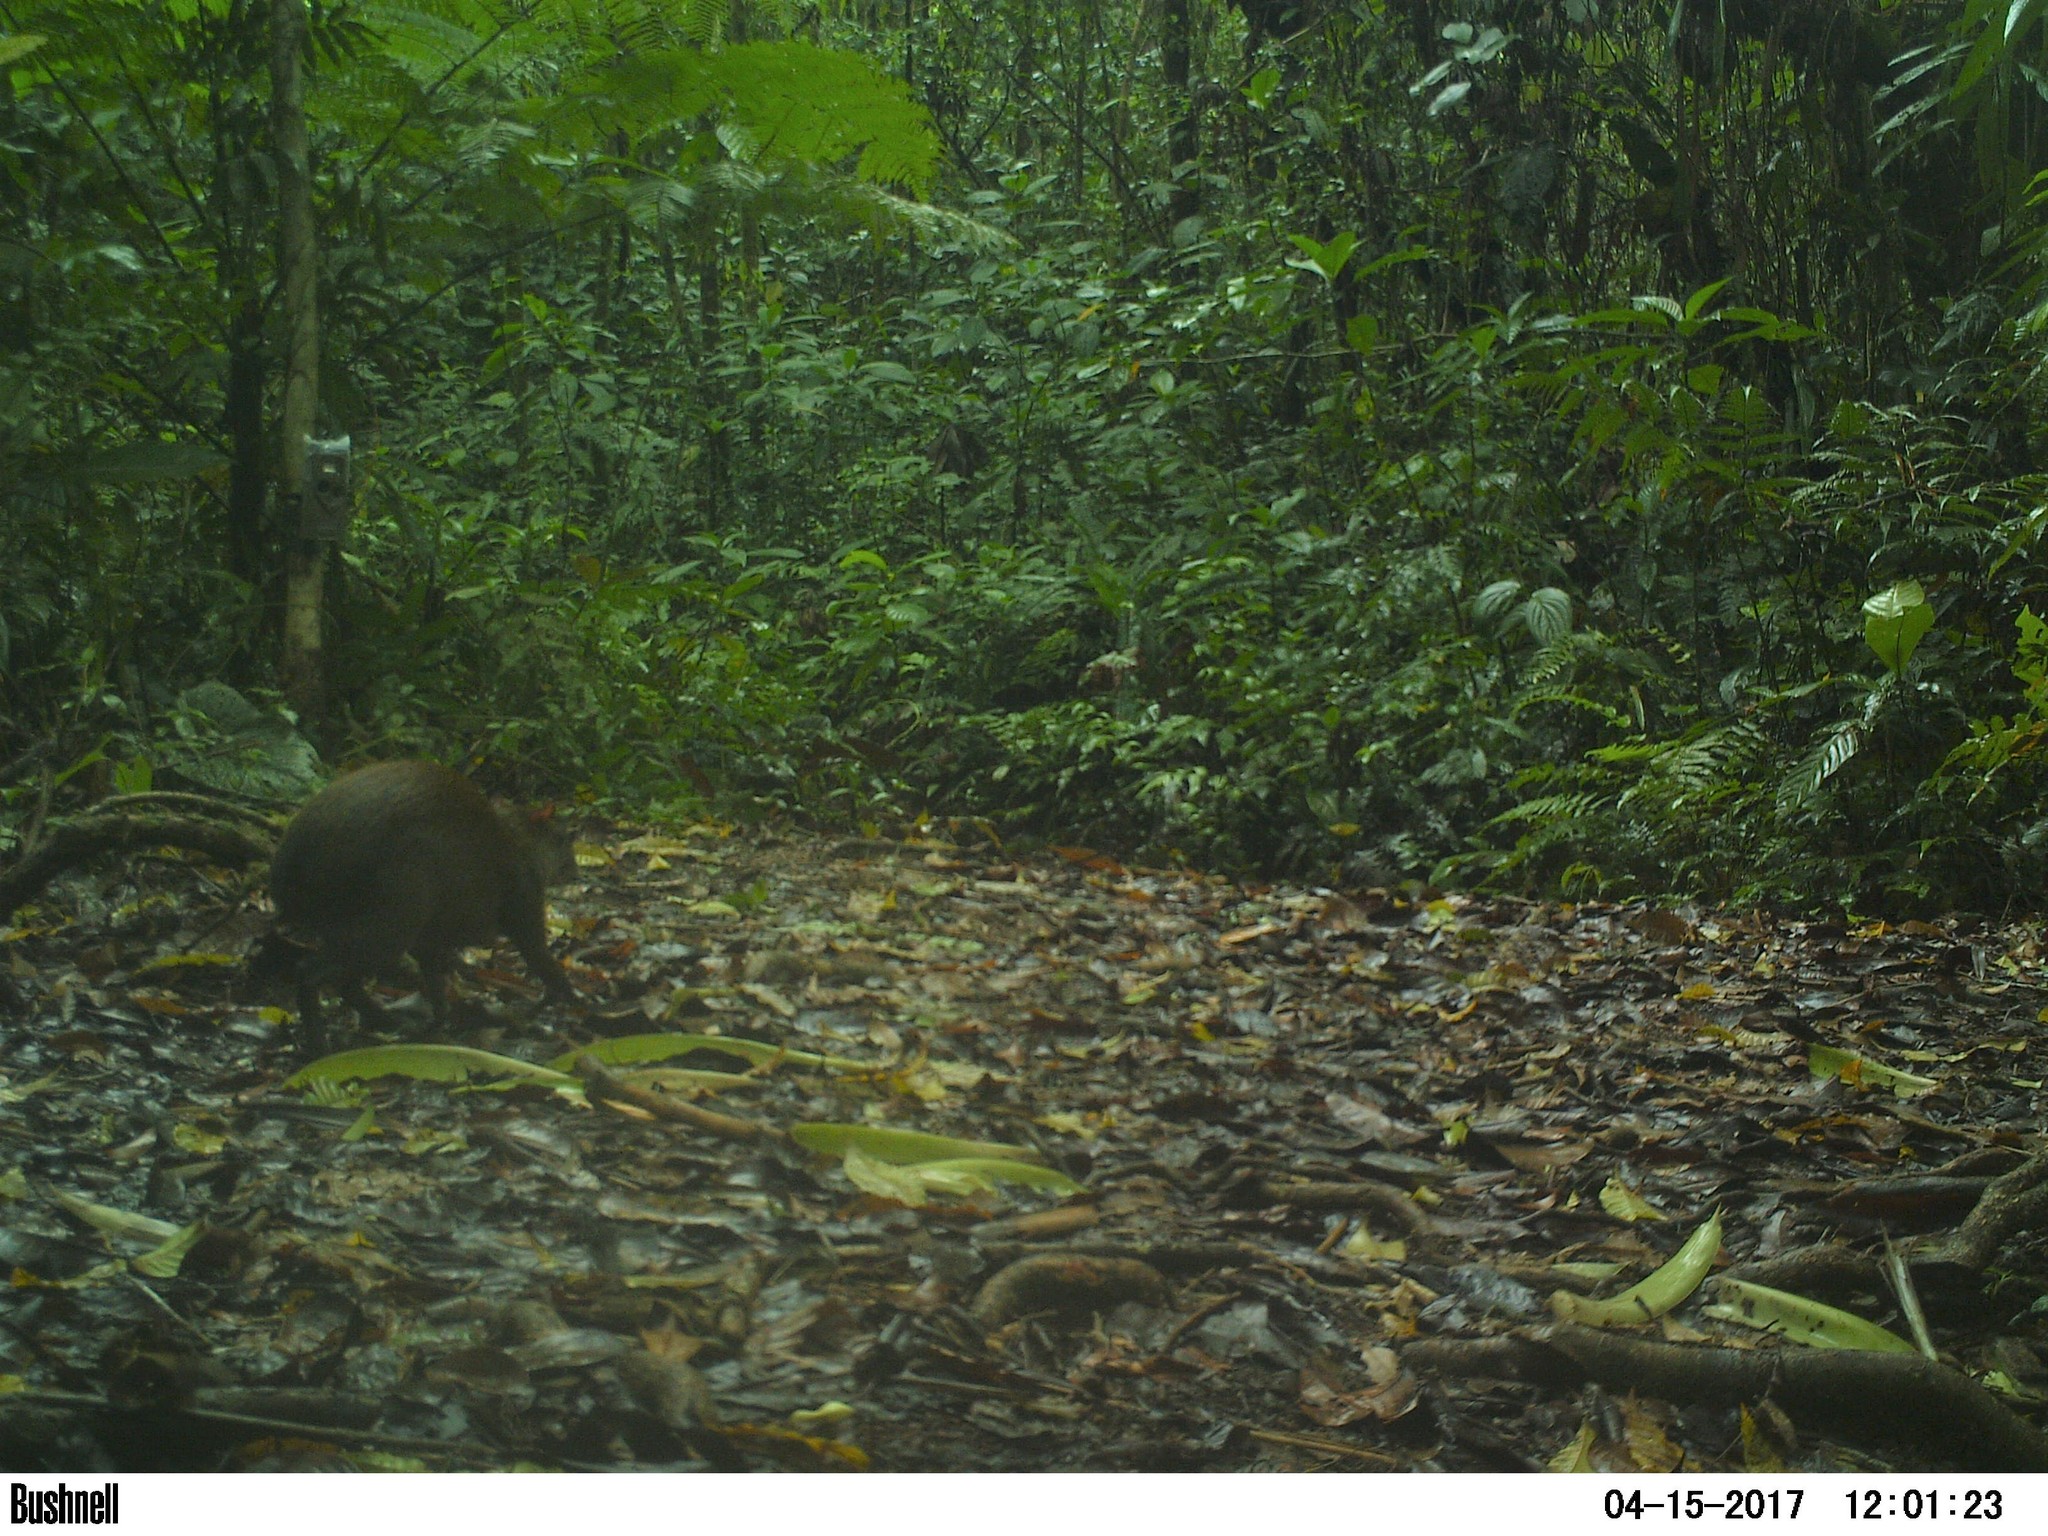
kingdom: Animalia
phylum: Chordata
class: Mammalia
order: Rodentia
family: Dasyproctidae
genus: Dasyprocta
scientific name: Dasyprocta punctata
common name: Central american agouti
